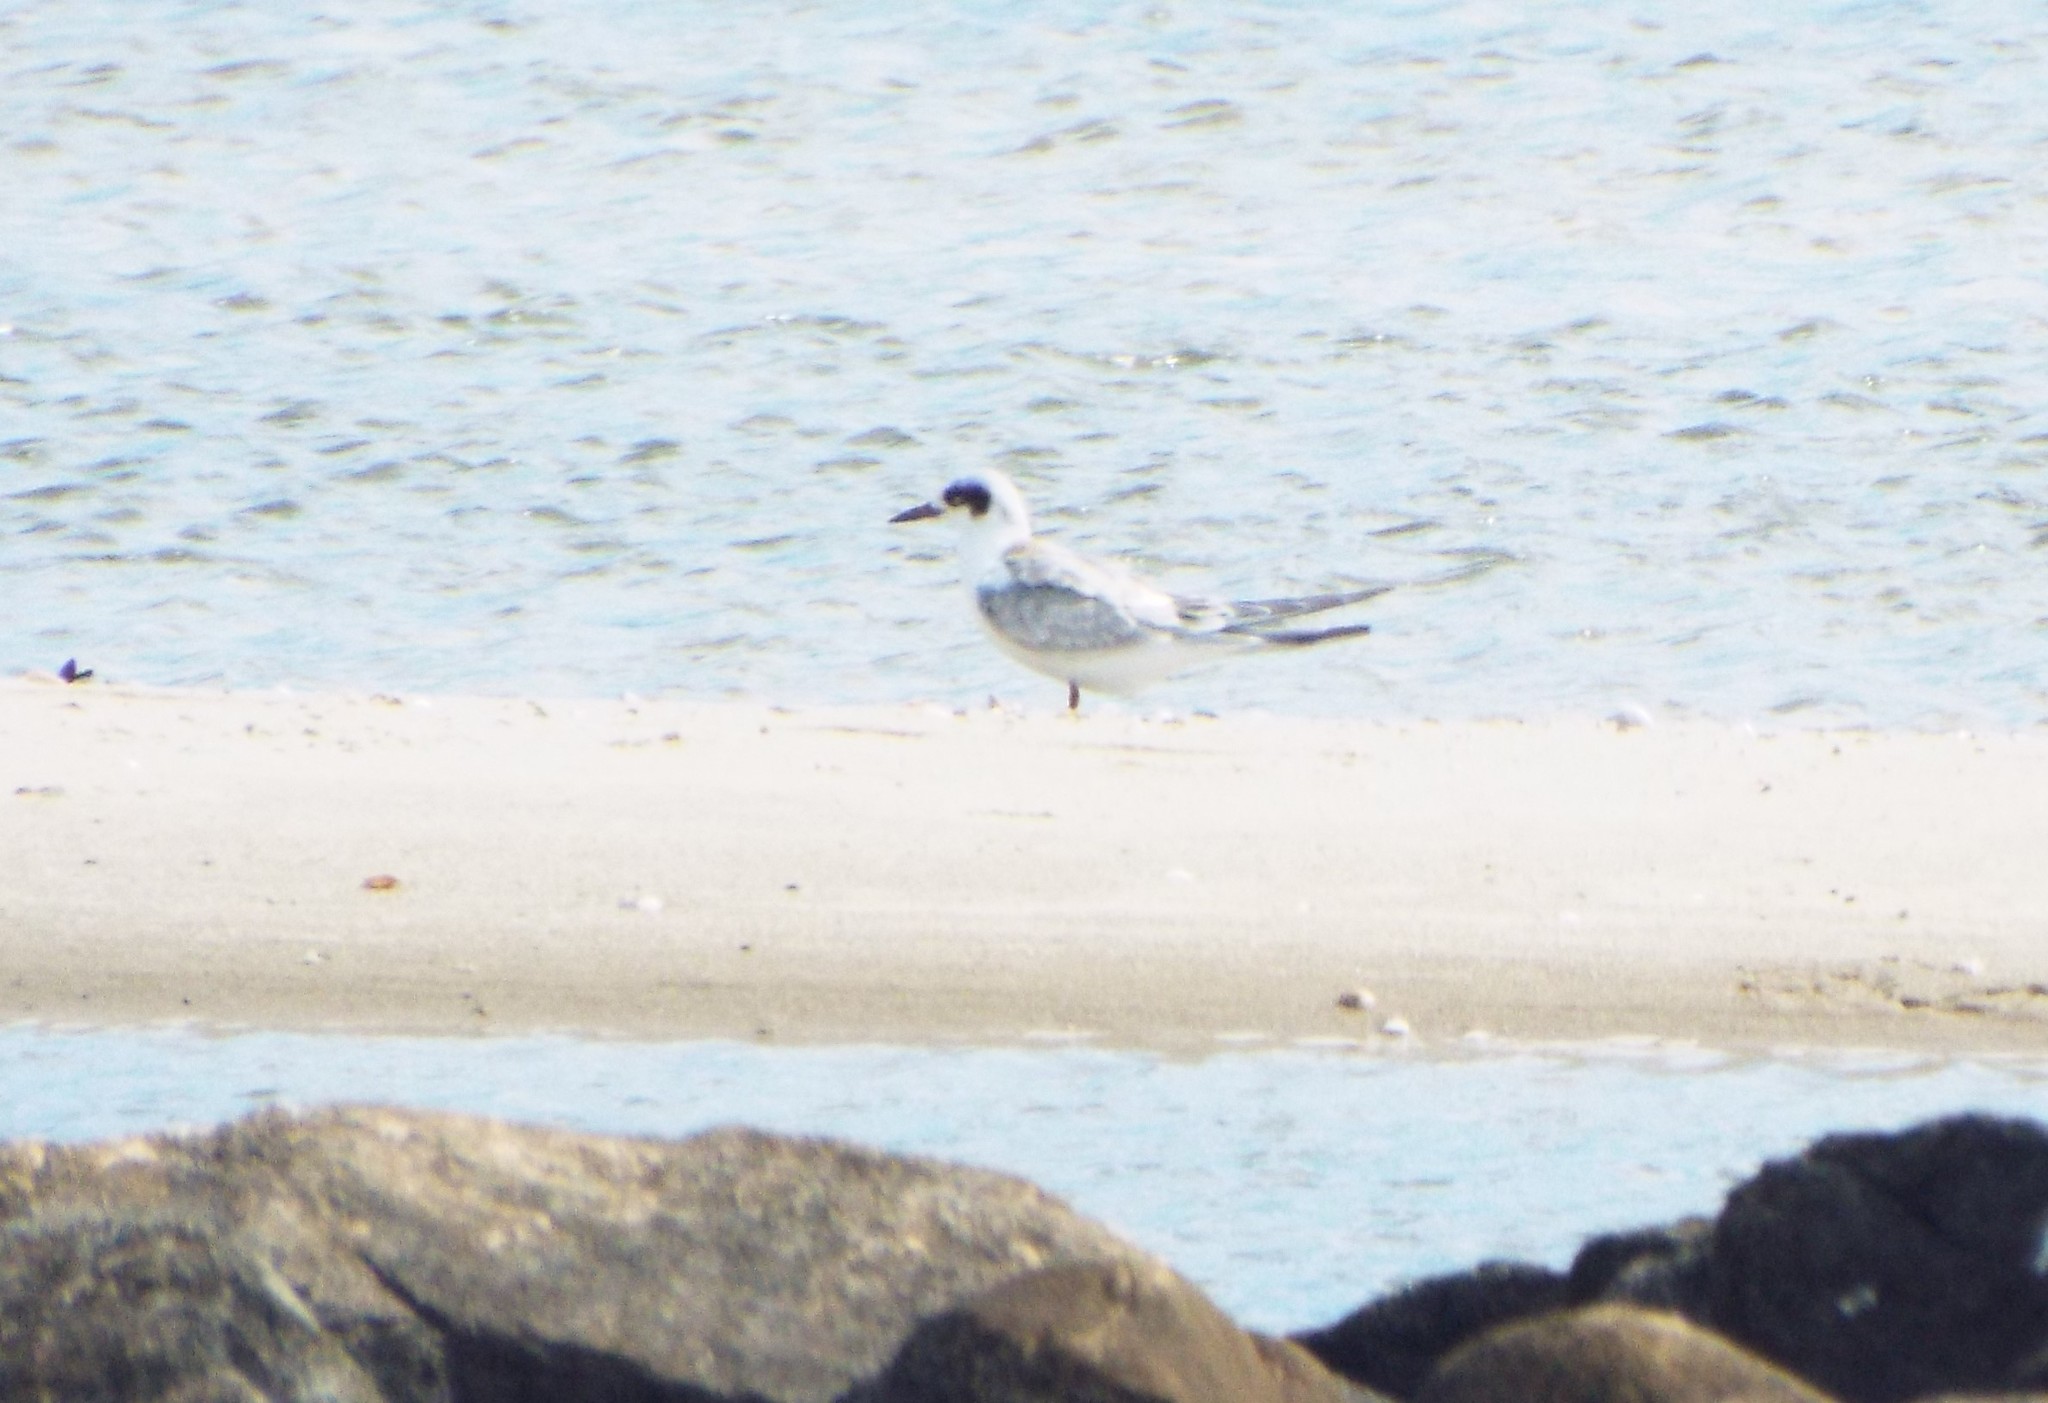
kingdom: Animalia
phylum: Chordata
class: Aves
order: Charadriiformes
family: Laridae
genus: Sterna
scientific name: Sterna forsteri
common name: Forster's tern
